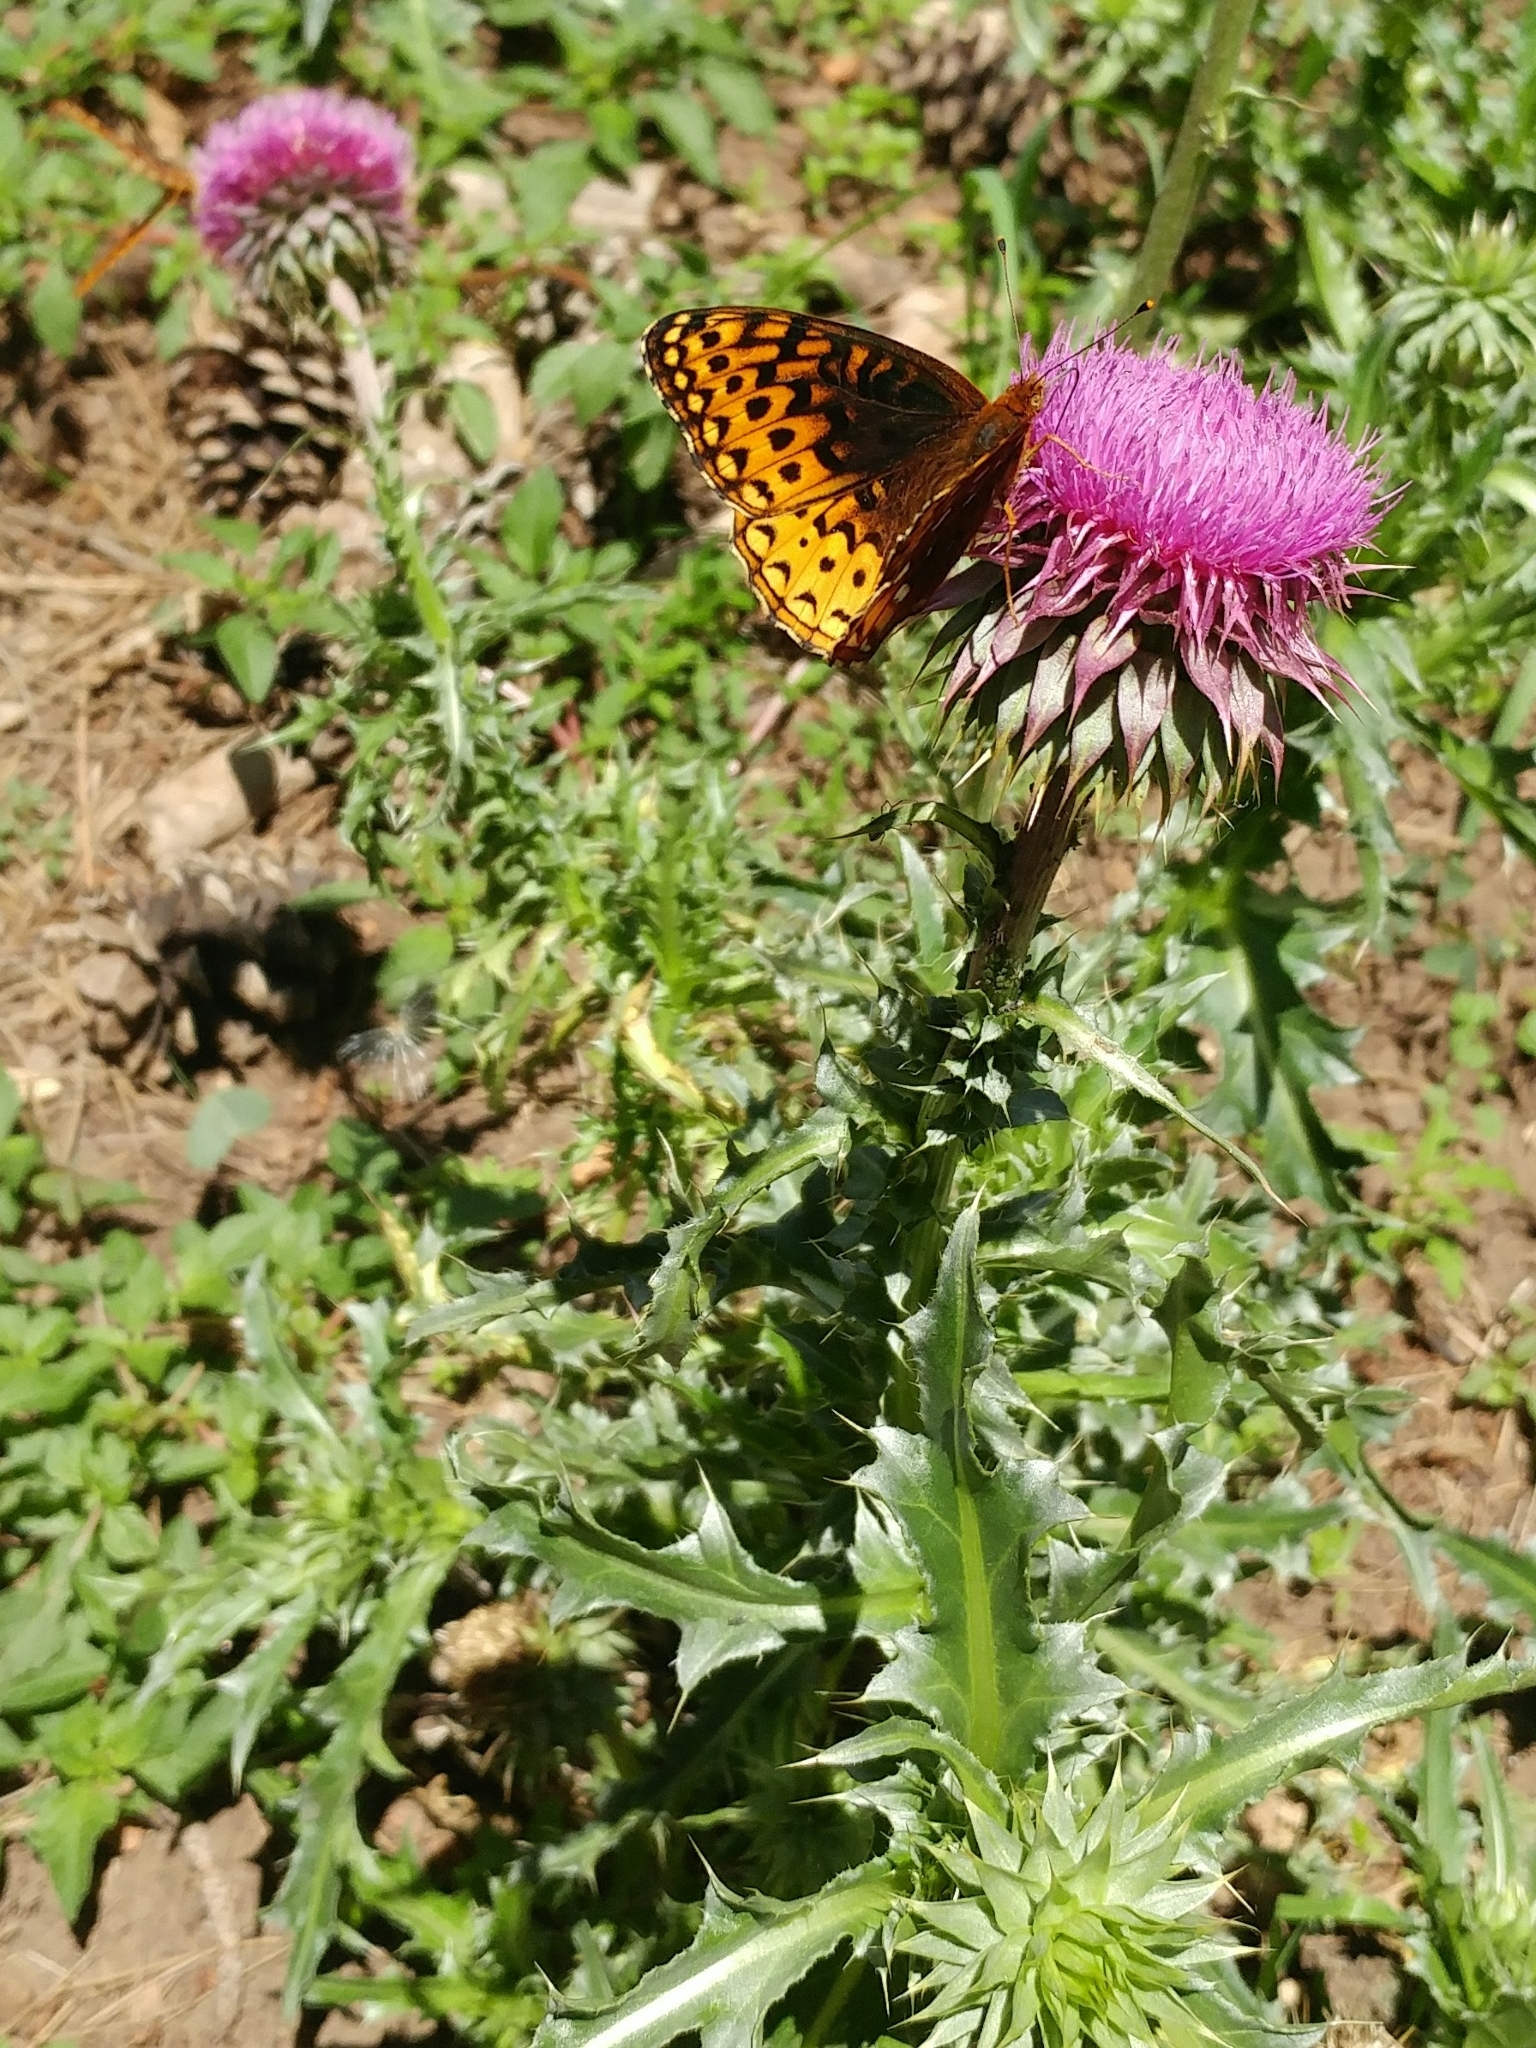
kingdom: Animalia
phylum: Arthropoda
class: Insecta
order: Lepidoptera
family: Nymphalidae
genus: Speyeria
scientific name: Speyeria atlantis
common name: Atlantis fritillary
